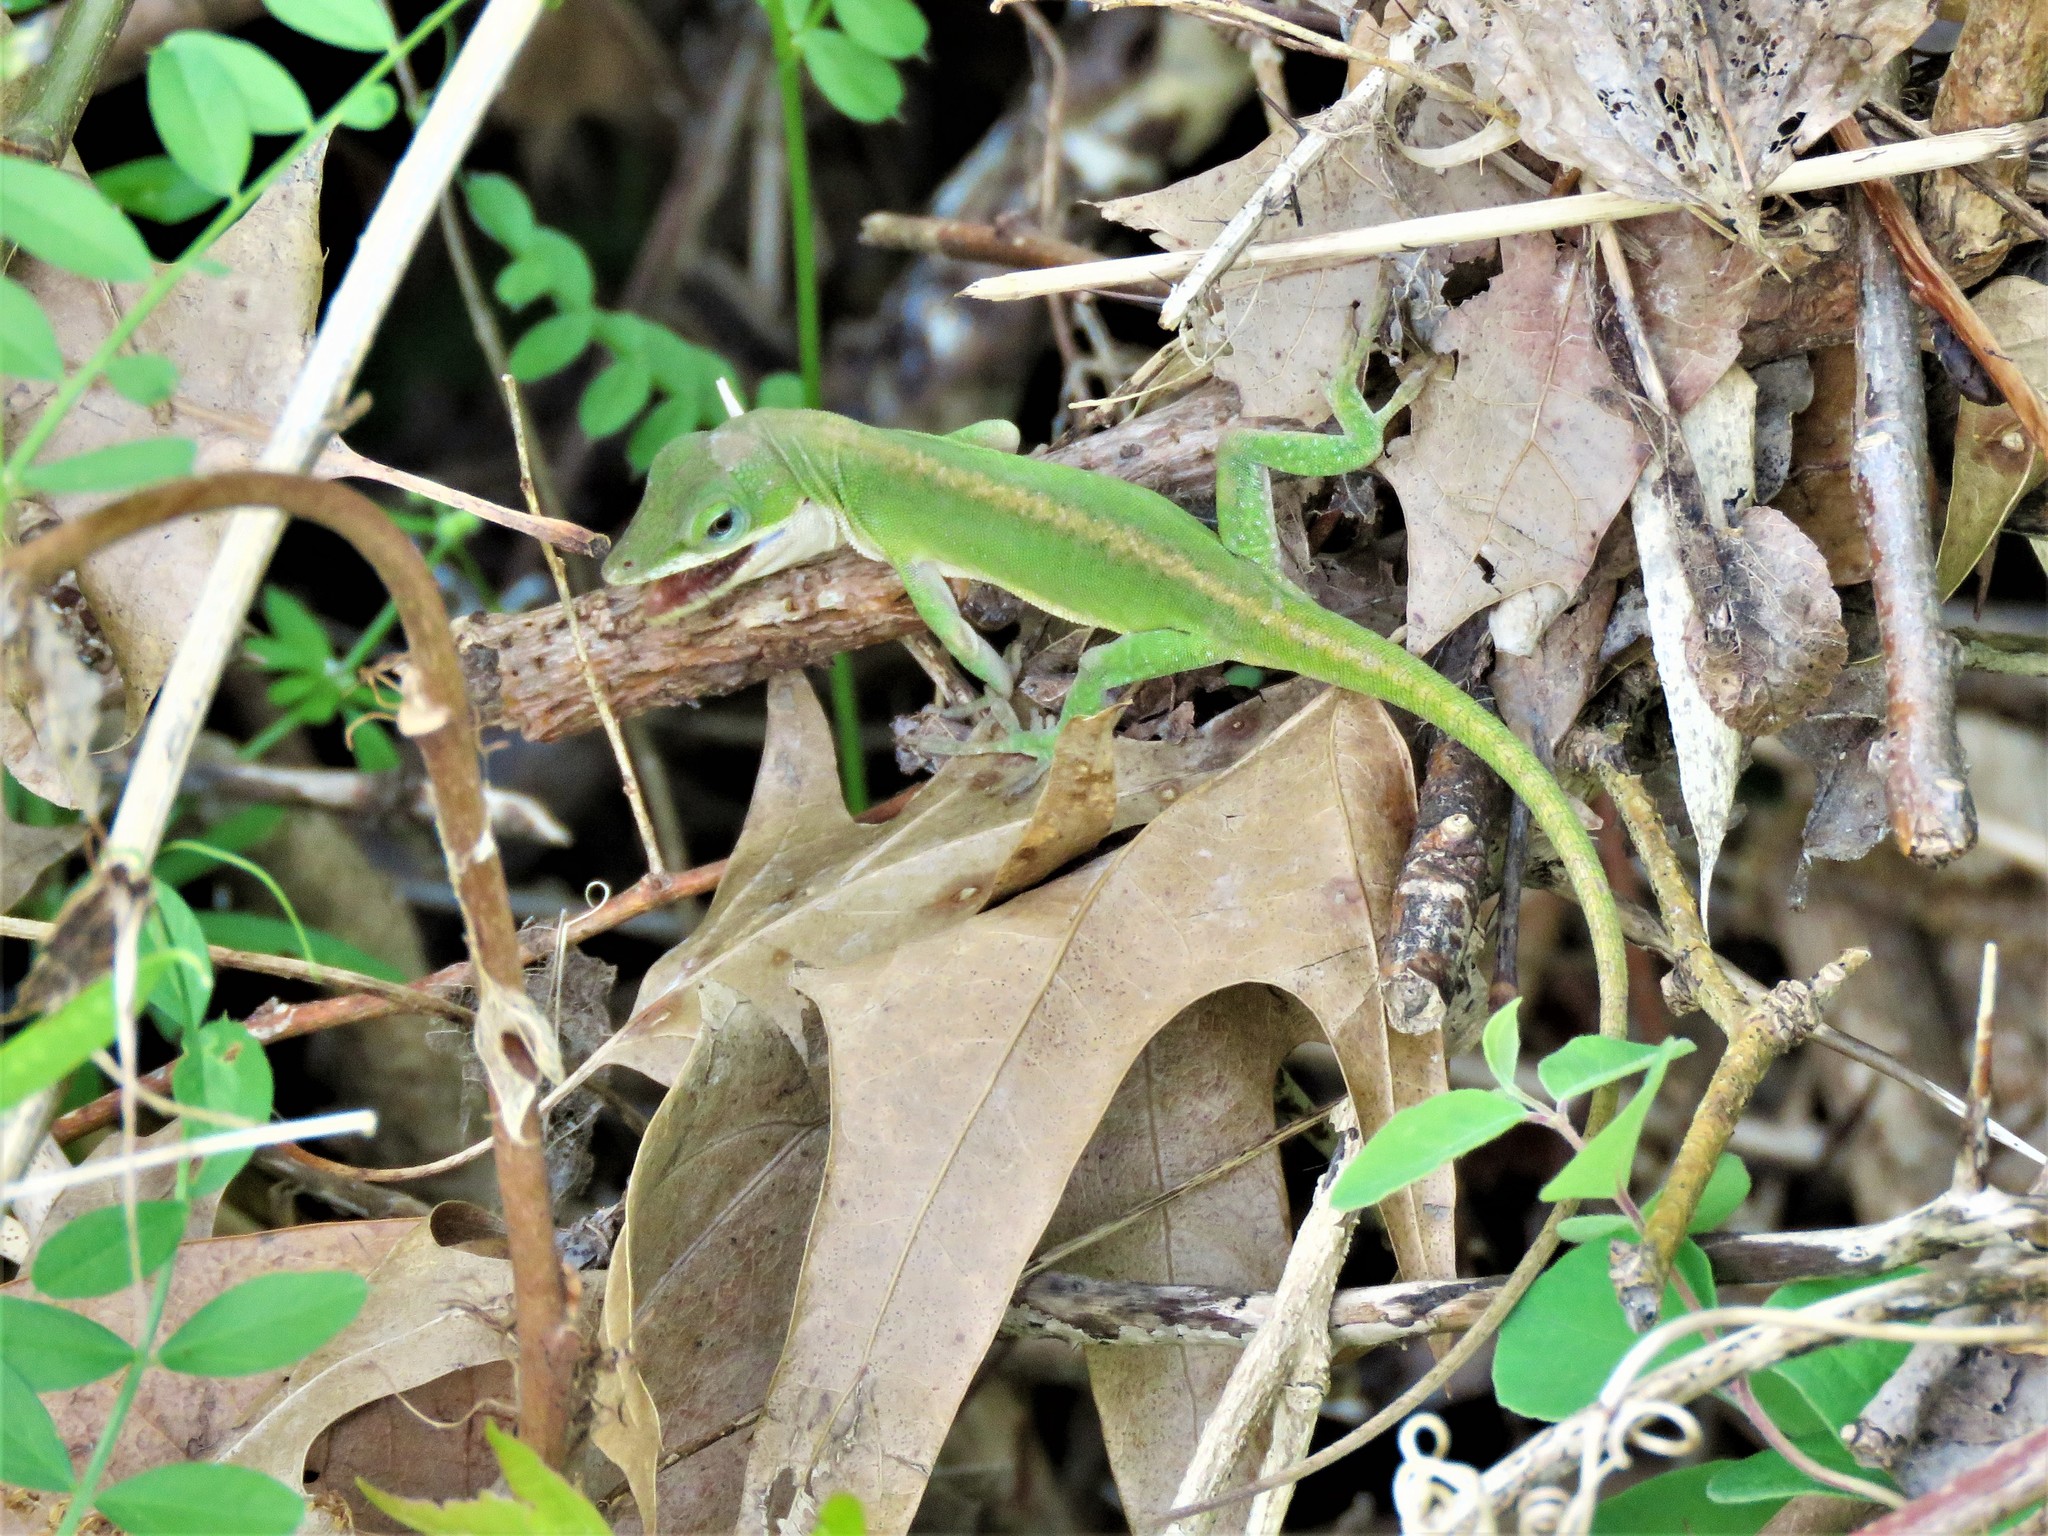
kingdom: Animalia
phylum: Chordata
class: Squamata
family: Dactyloidae
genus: Anolis
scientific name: Anolis carolinensis
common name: Green anole
